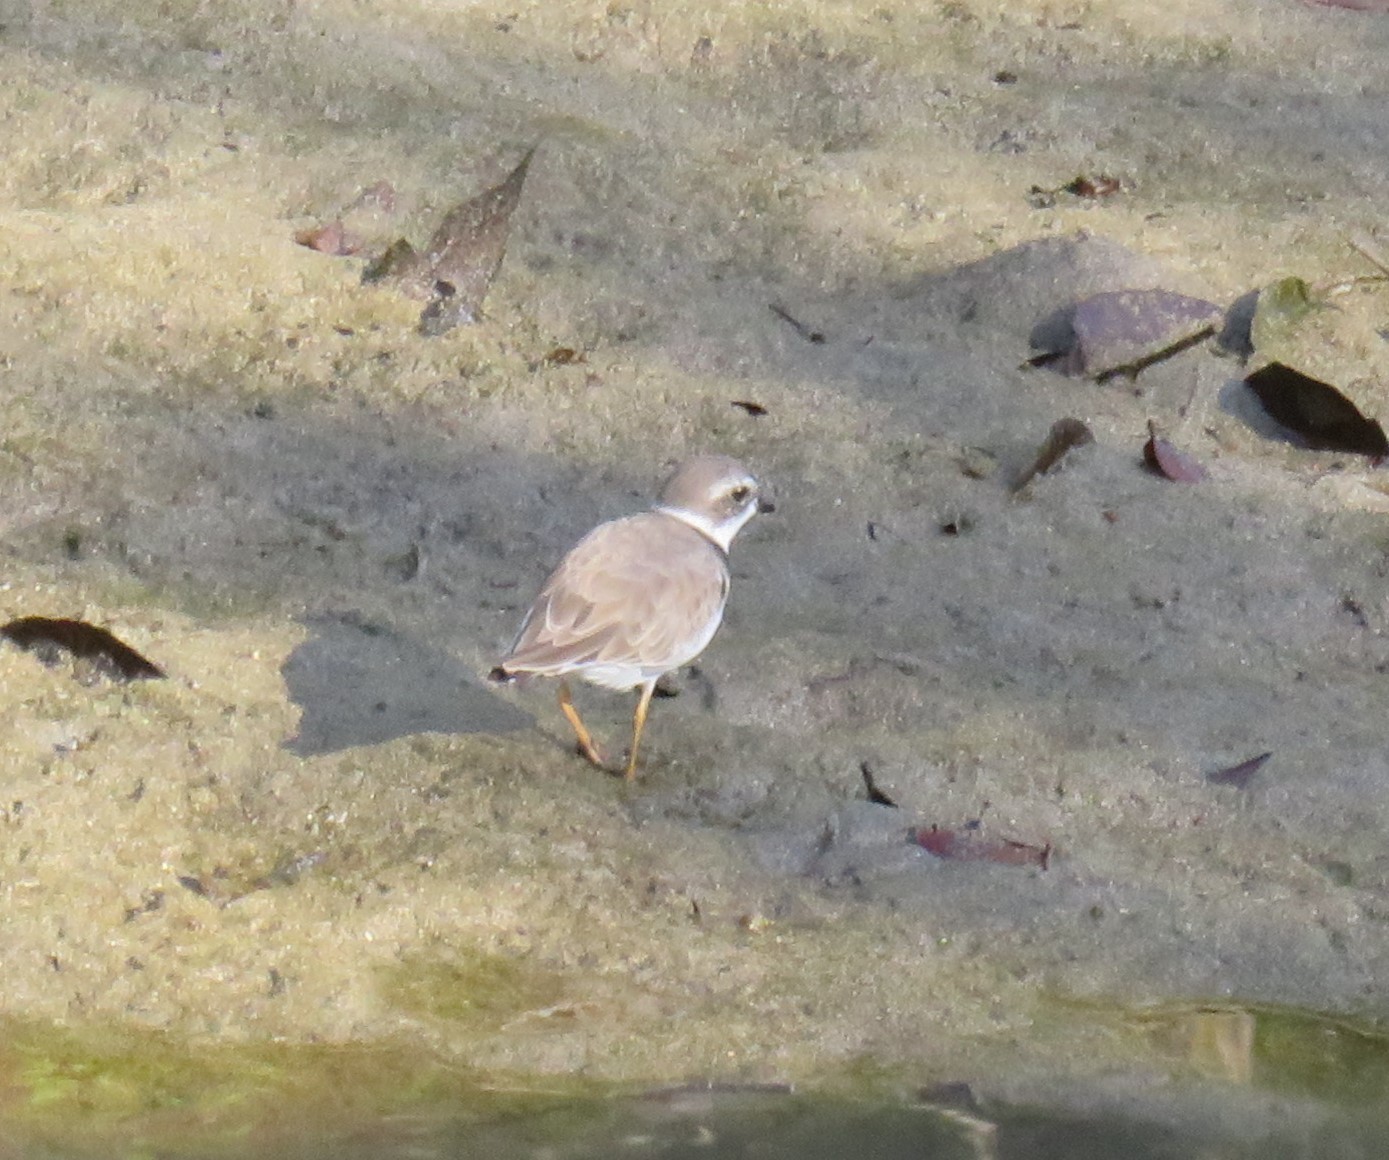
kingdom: Animalia
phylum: Chordata
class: Aves
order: Charadriiformes
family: Charadriidae
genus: Charadrius
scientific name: Charadrius semipalmatus
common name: Semipalmated plover
